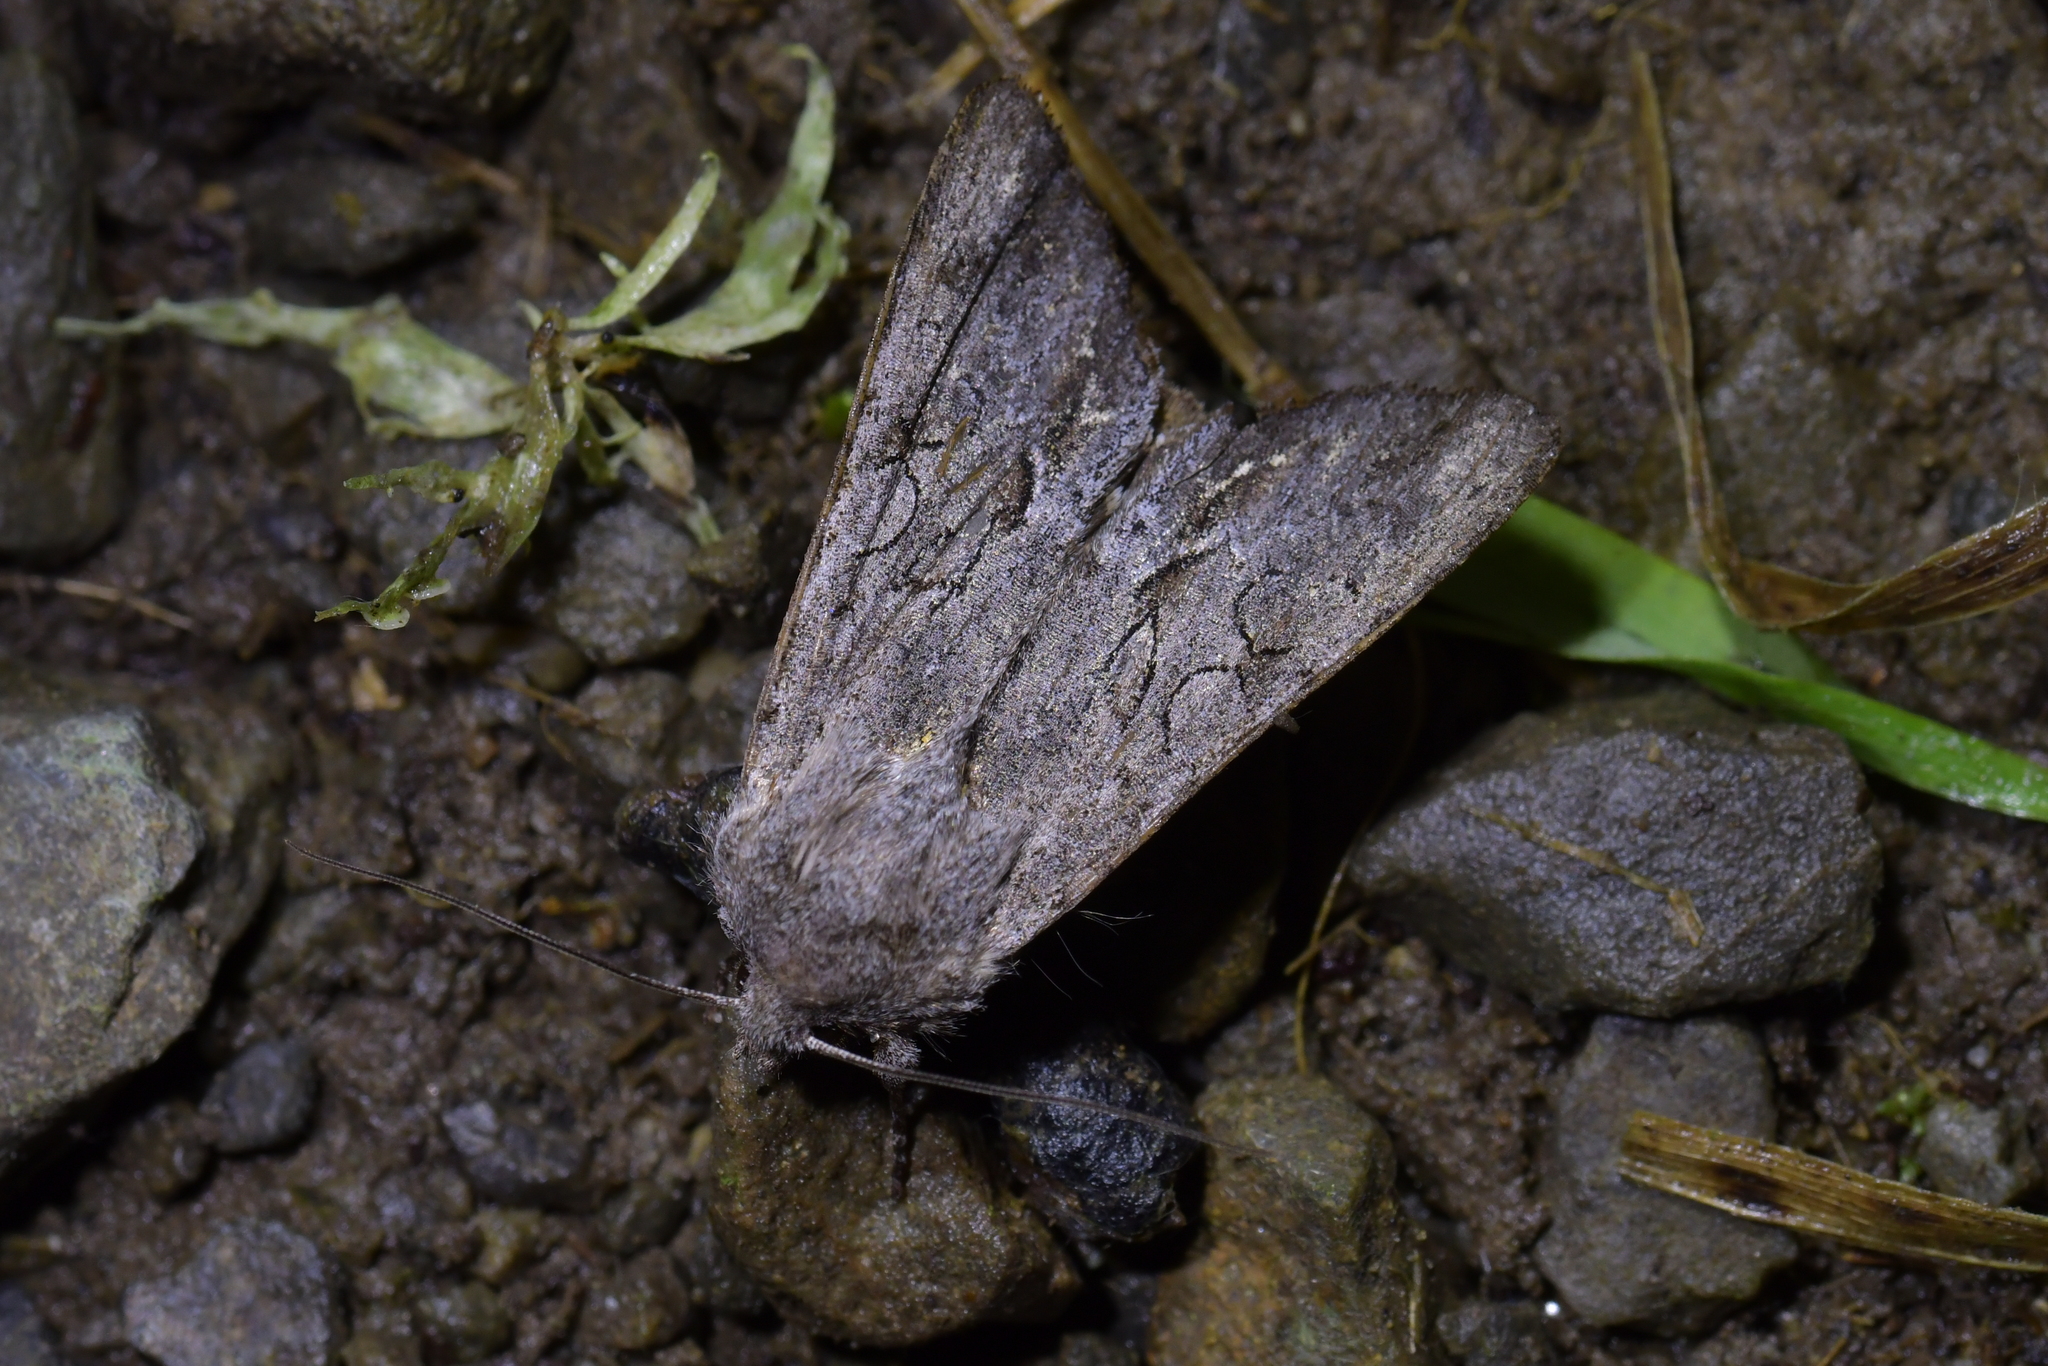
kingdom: Animalia
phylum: Arthropoda
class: Insecta
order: Lepidoptera
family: Noctuidae
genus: Ichneutica
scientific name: Ichneutica
